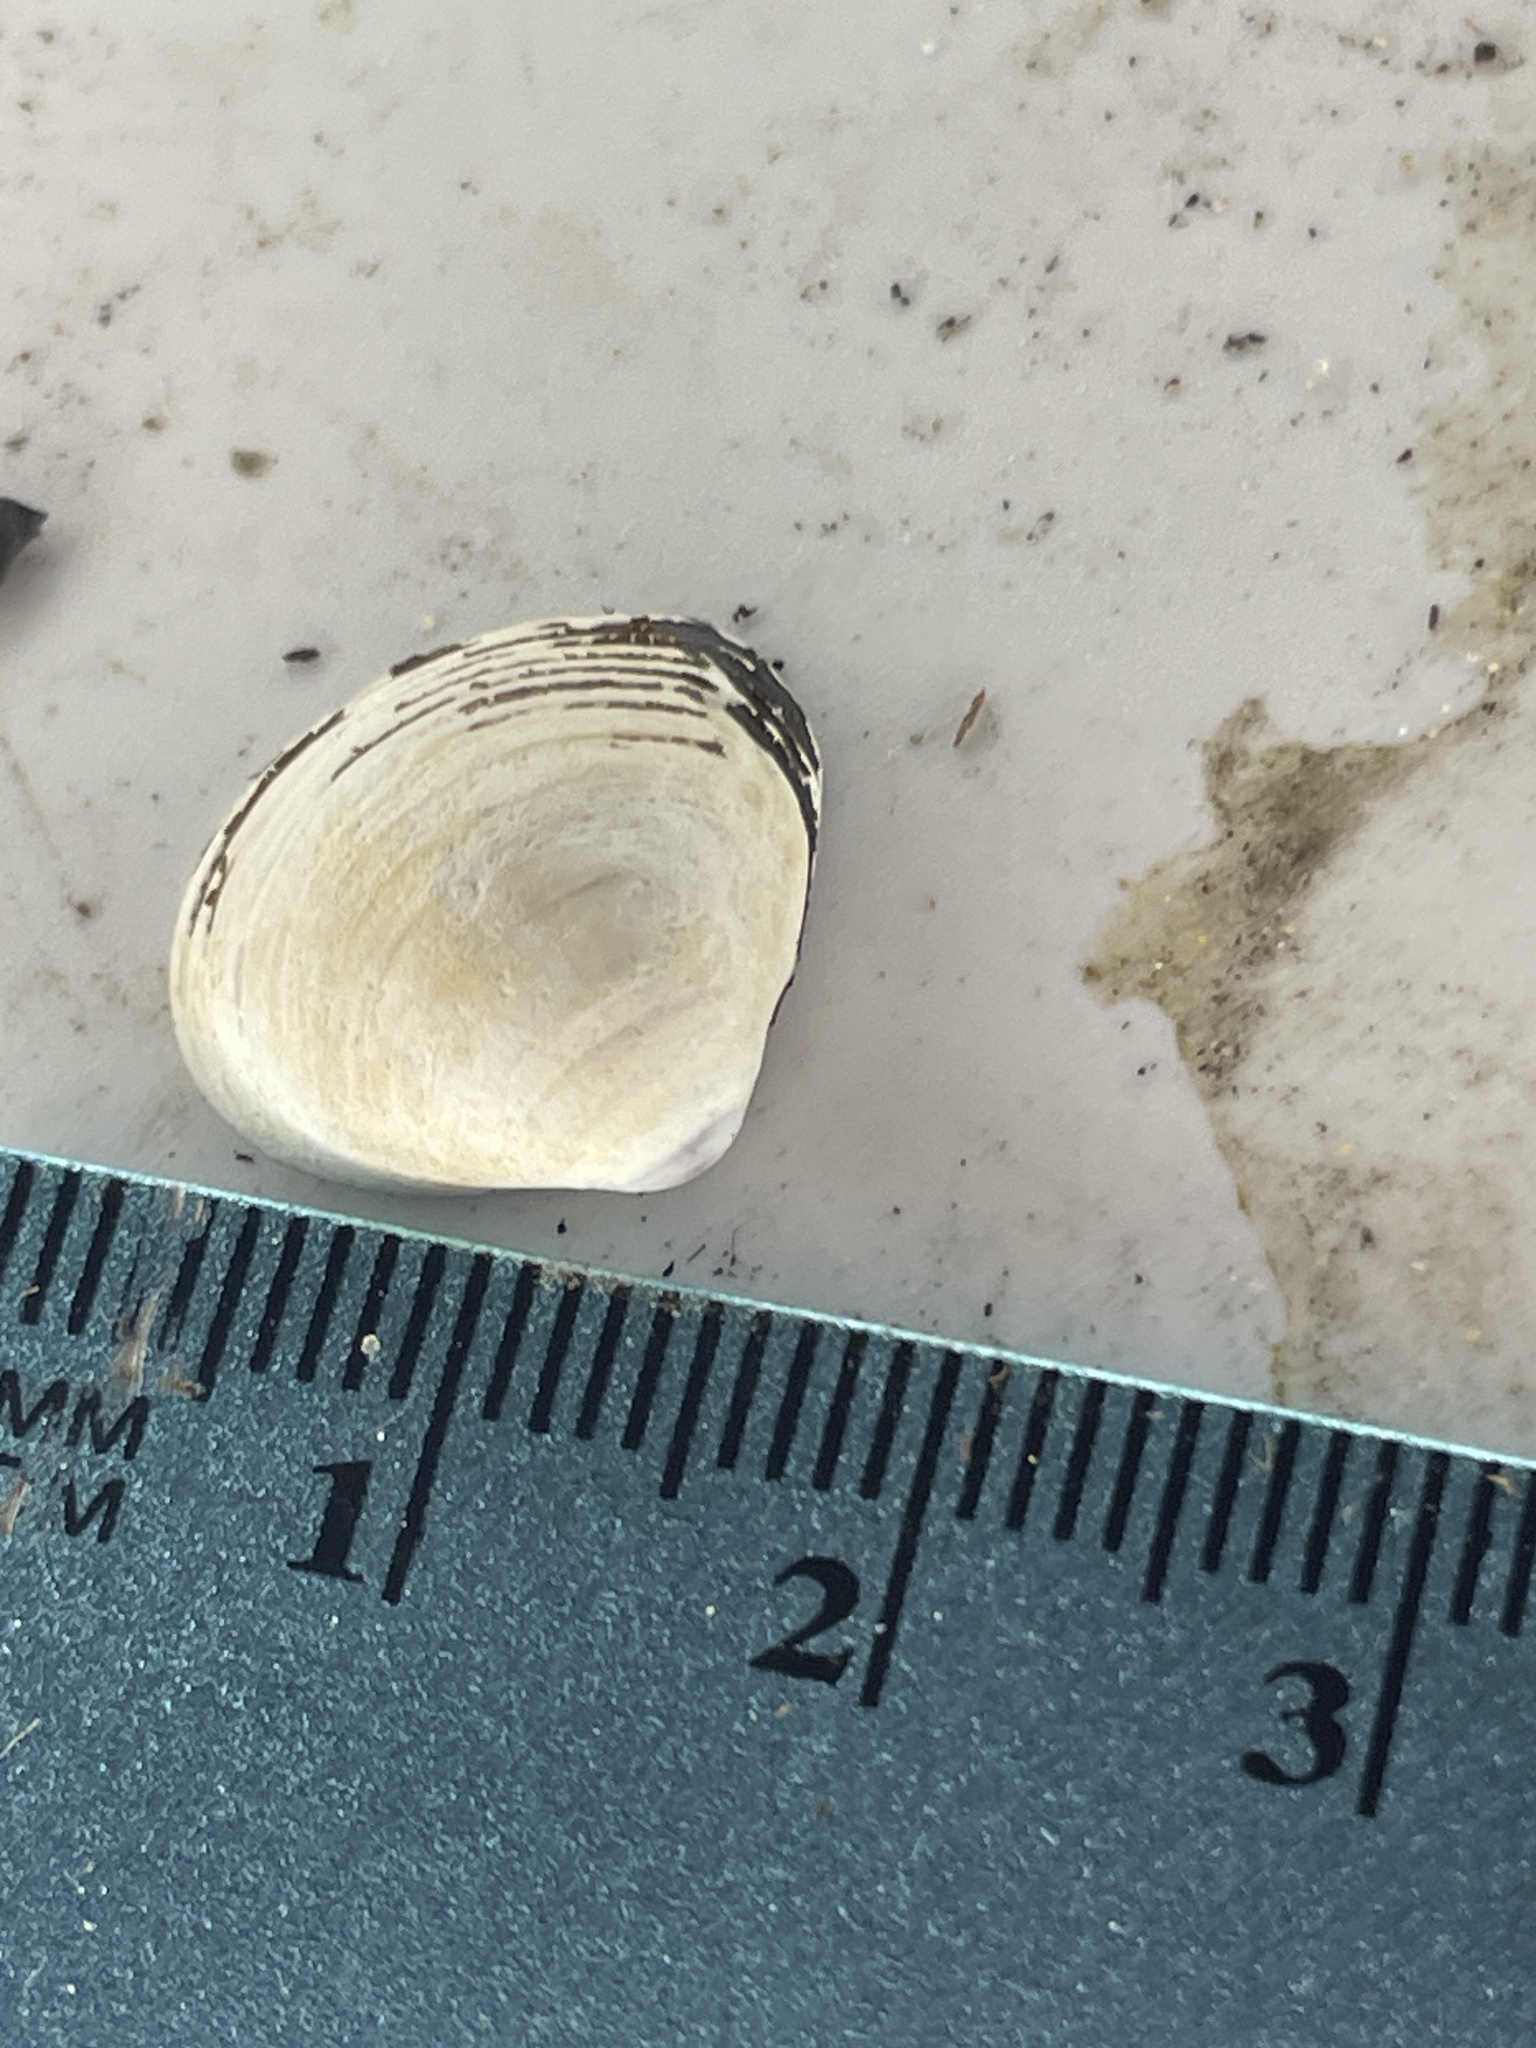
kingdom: Animalia
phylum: Mollusca
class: Bivalvia
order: Venerida
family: Cyrenidae
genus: Corbicula
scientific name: Corbicula fluminea
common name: Asian clam
